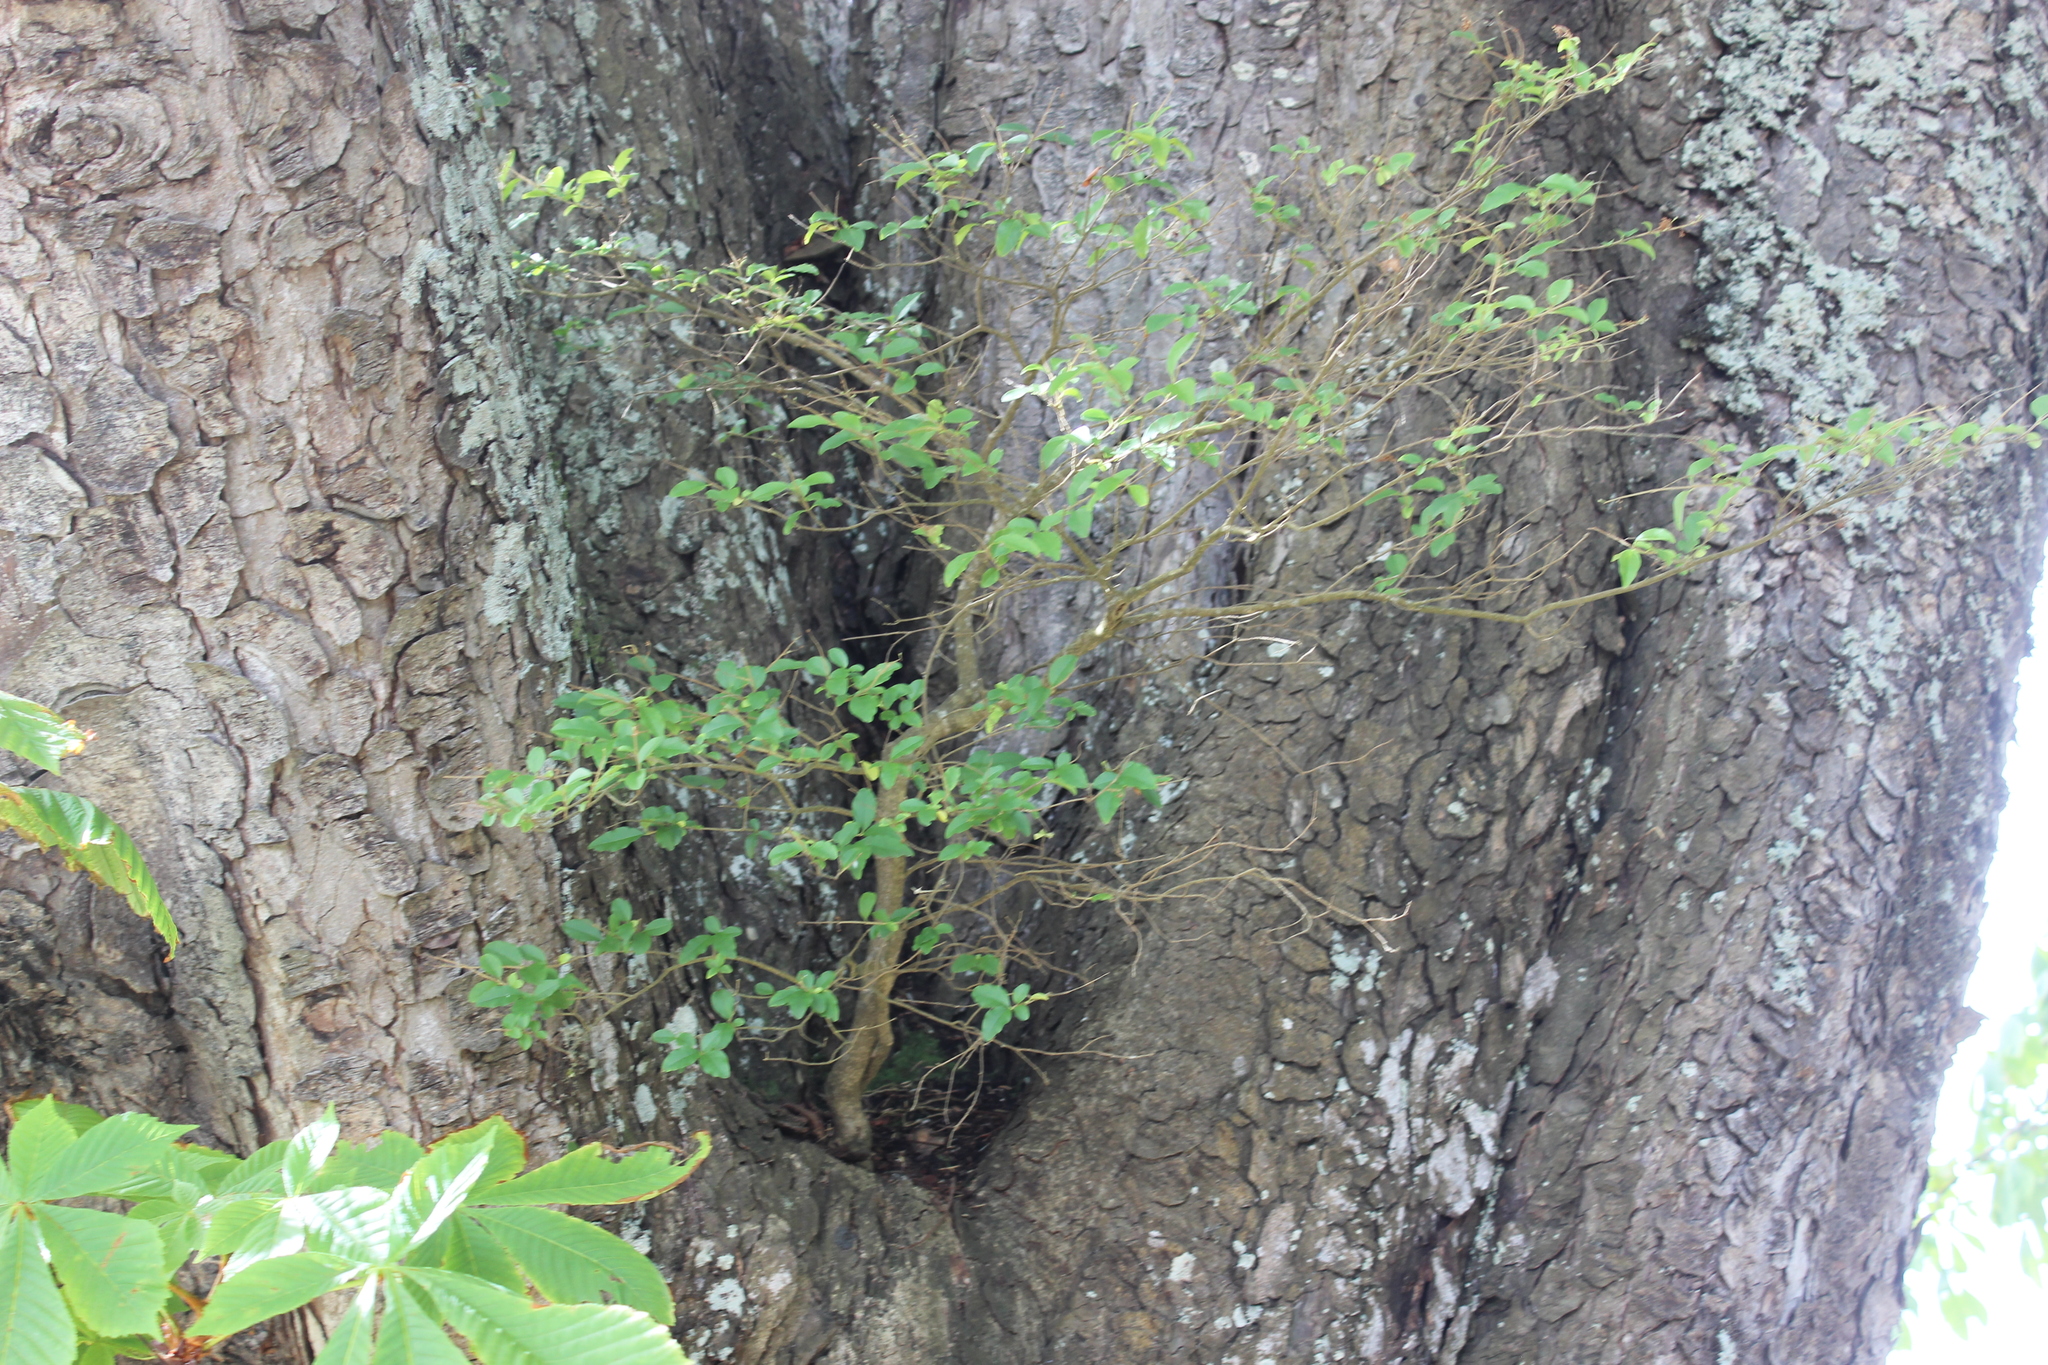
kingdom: Plantae
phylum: Tracheophyta
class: Magnoliopsida
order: Lamiales
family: Oleaceae
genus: Ligustrum
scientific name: Ligustrum sinense
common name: Chinese privet
